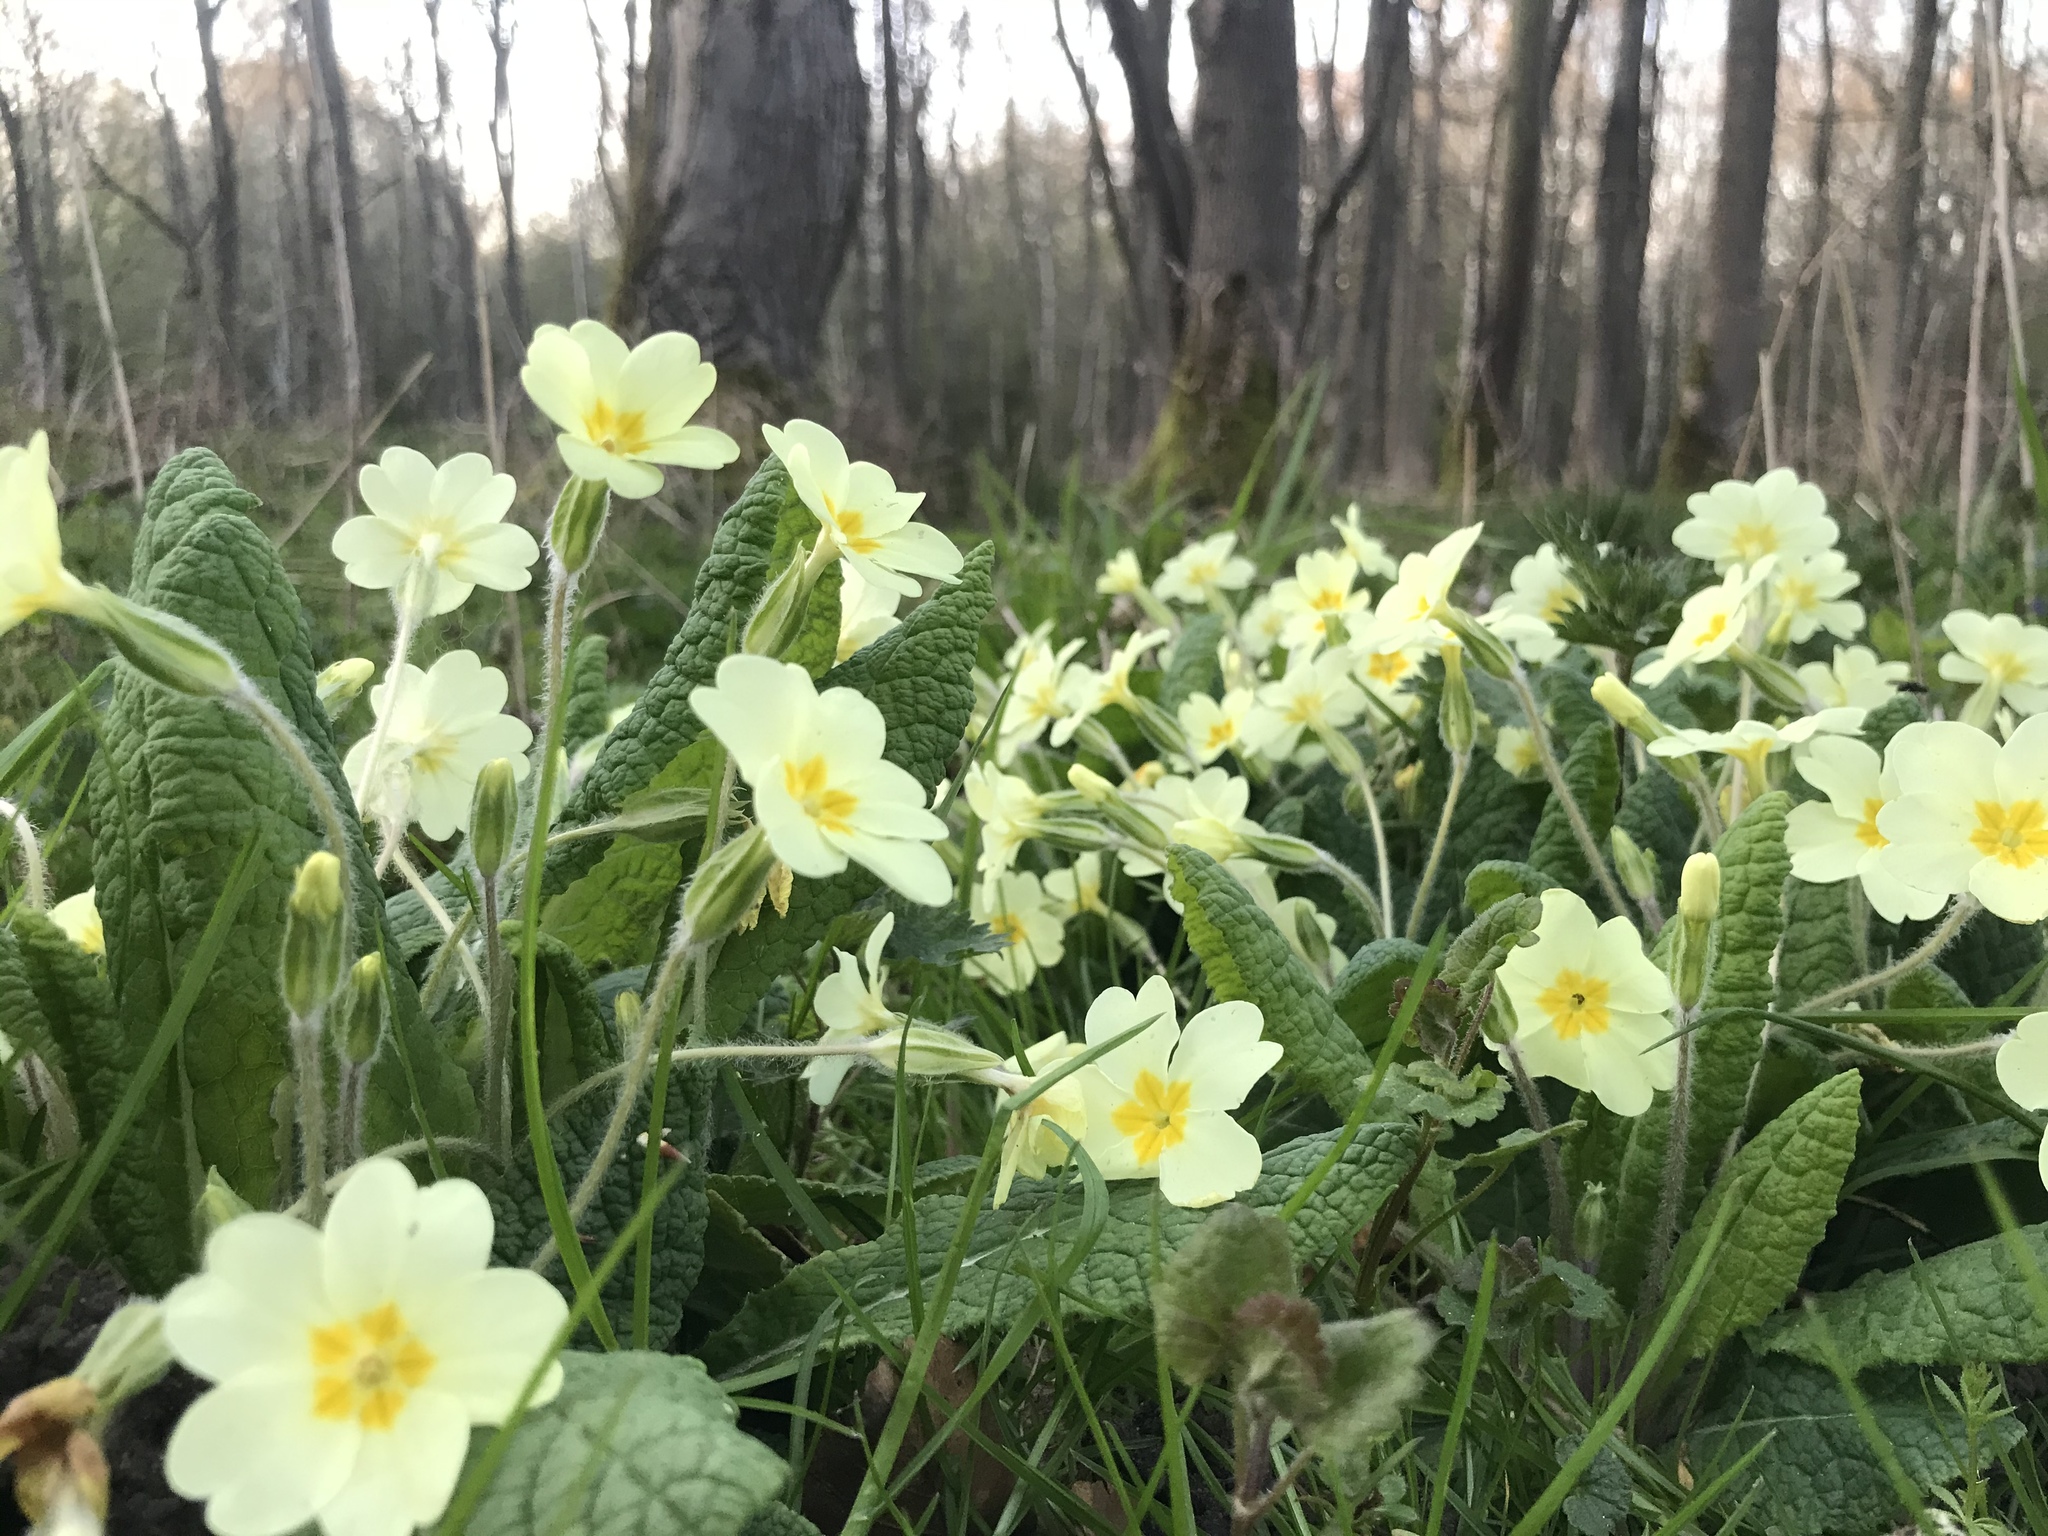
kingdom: Plantae
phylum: Tracheophyta
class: Magnoliopsida
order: Ericales
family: Primulaceae
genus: Primula
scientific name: Primula vulgaris
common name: Primrose
